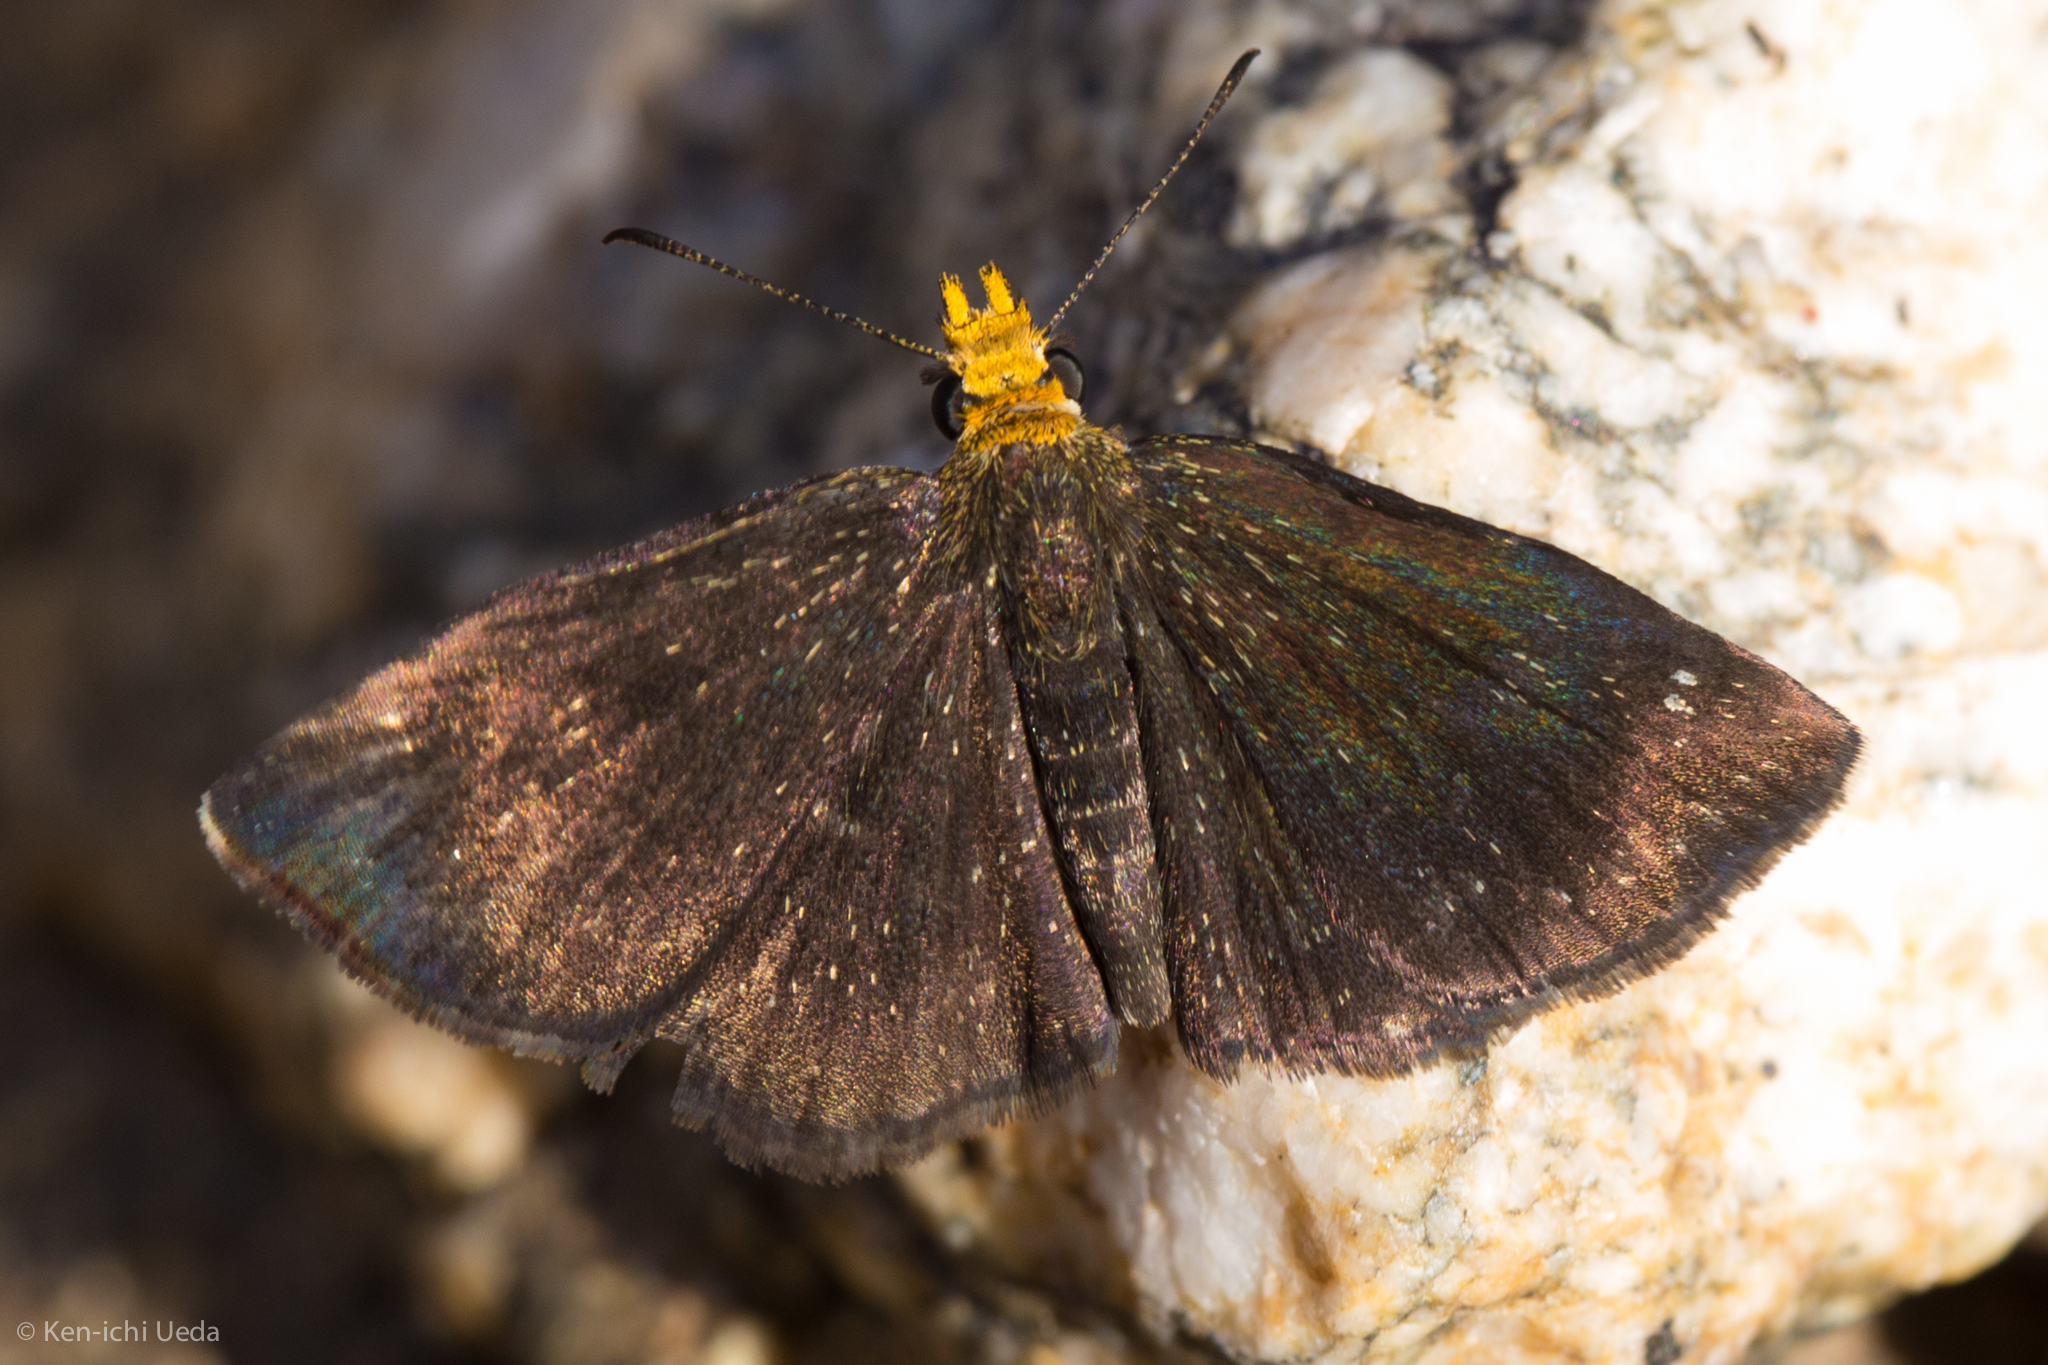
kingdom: Animalia
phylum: Arthropoda
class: Insecta
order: Lepidoptera
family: Hesperiidae
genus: Staphylus
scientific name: Staphylus ceos
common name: Golden-headed scallopwing
